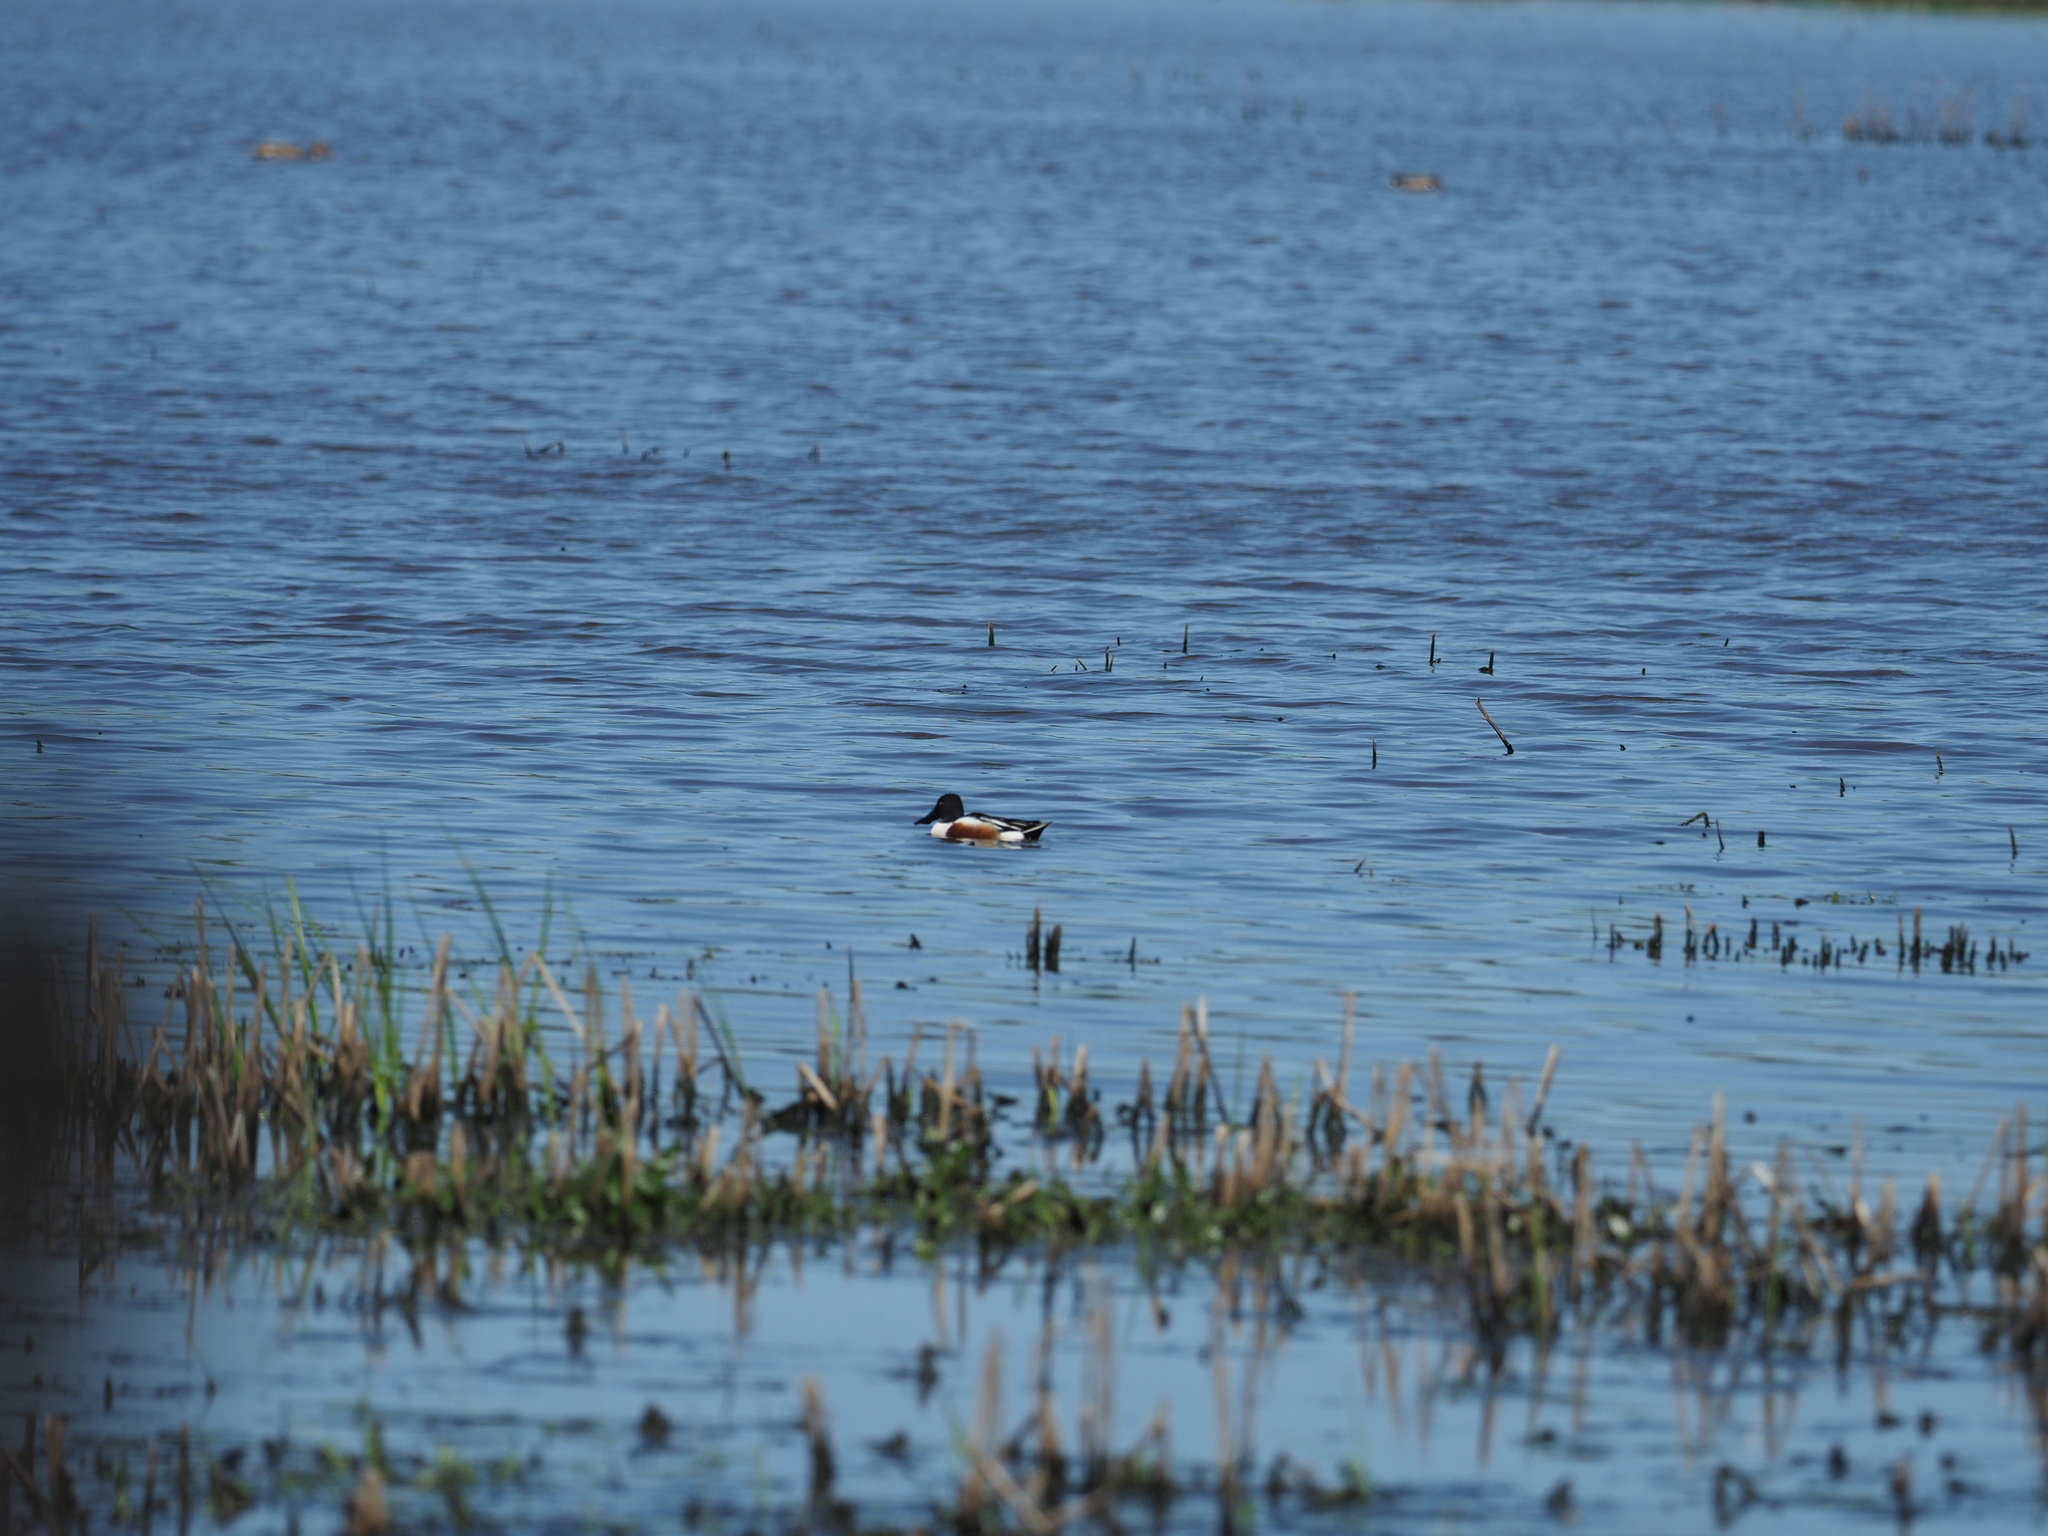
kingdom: Animalia
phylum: Chordata
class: Aves
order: Anseriformes
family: Anatidae
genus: Spatula
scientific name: Spatula clypeata
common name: Northern shoveler
